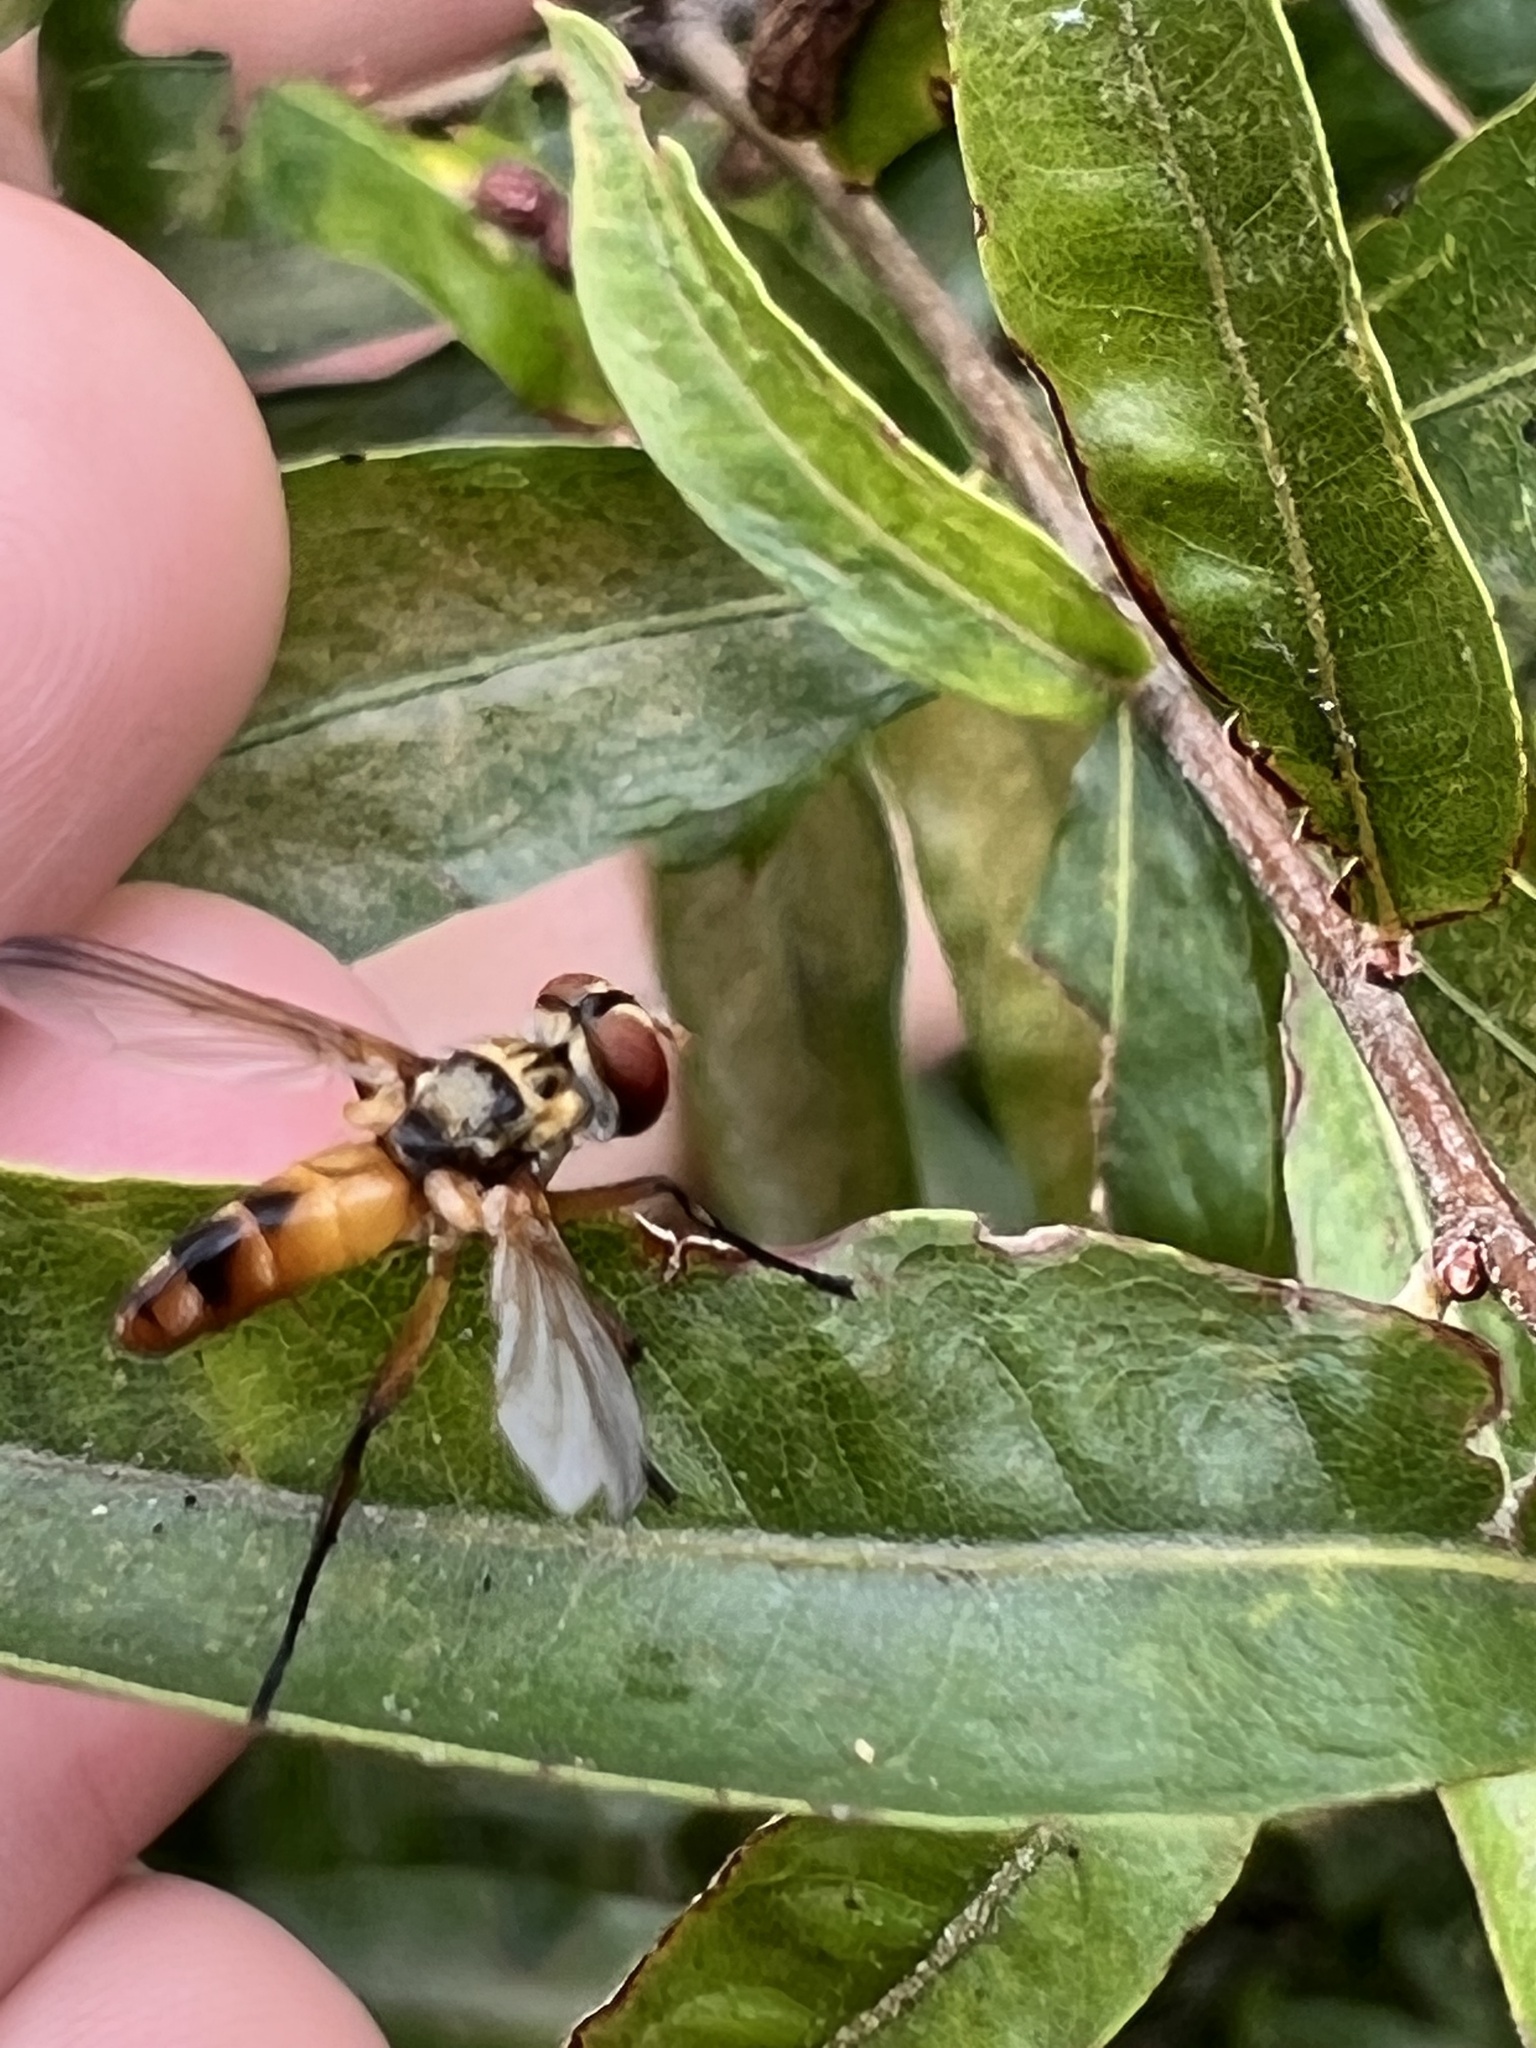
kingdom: Animalia
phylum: Arthropoda
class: Insecta
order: Diptera
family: Tachinidae
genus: Xanthomelanodes
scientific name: Xanthomelanodes flavipes
